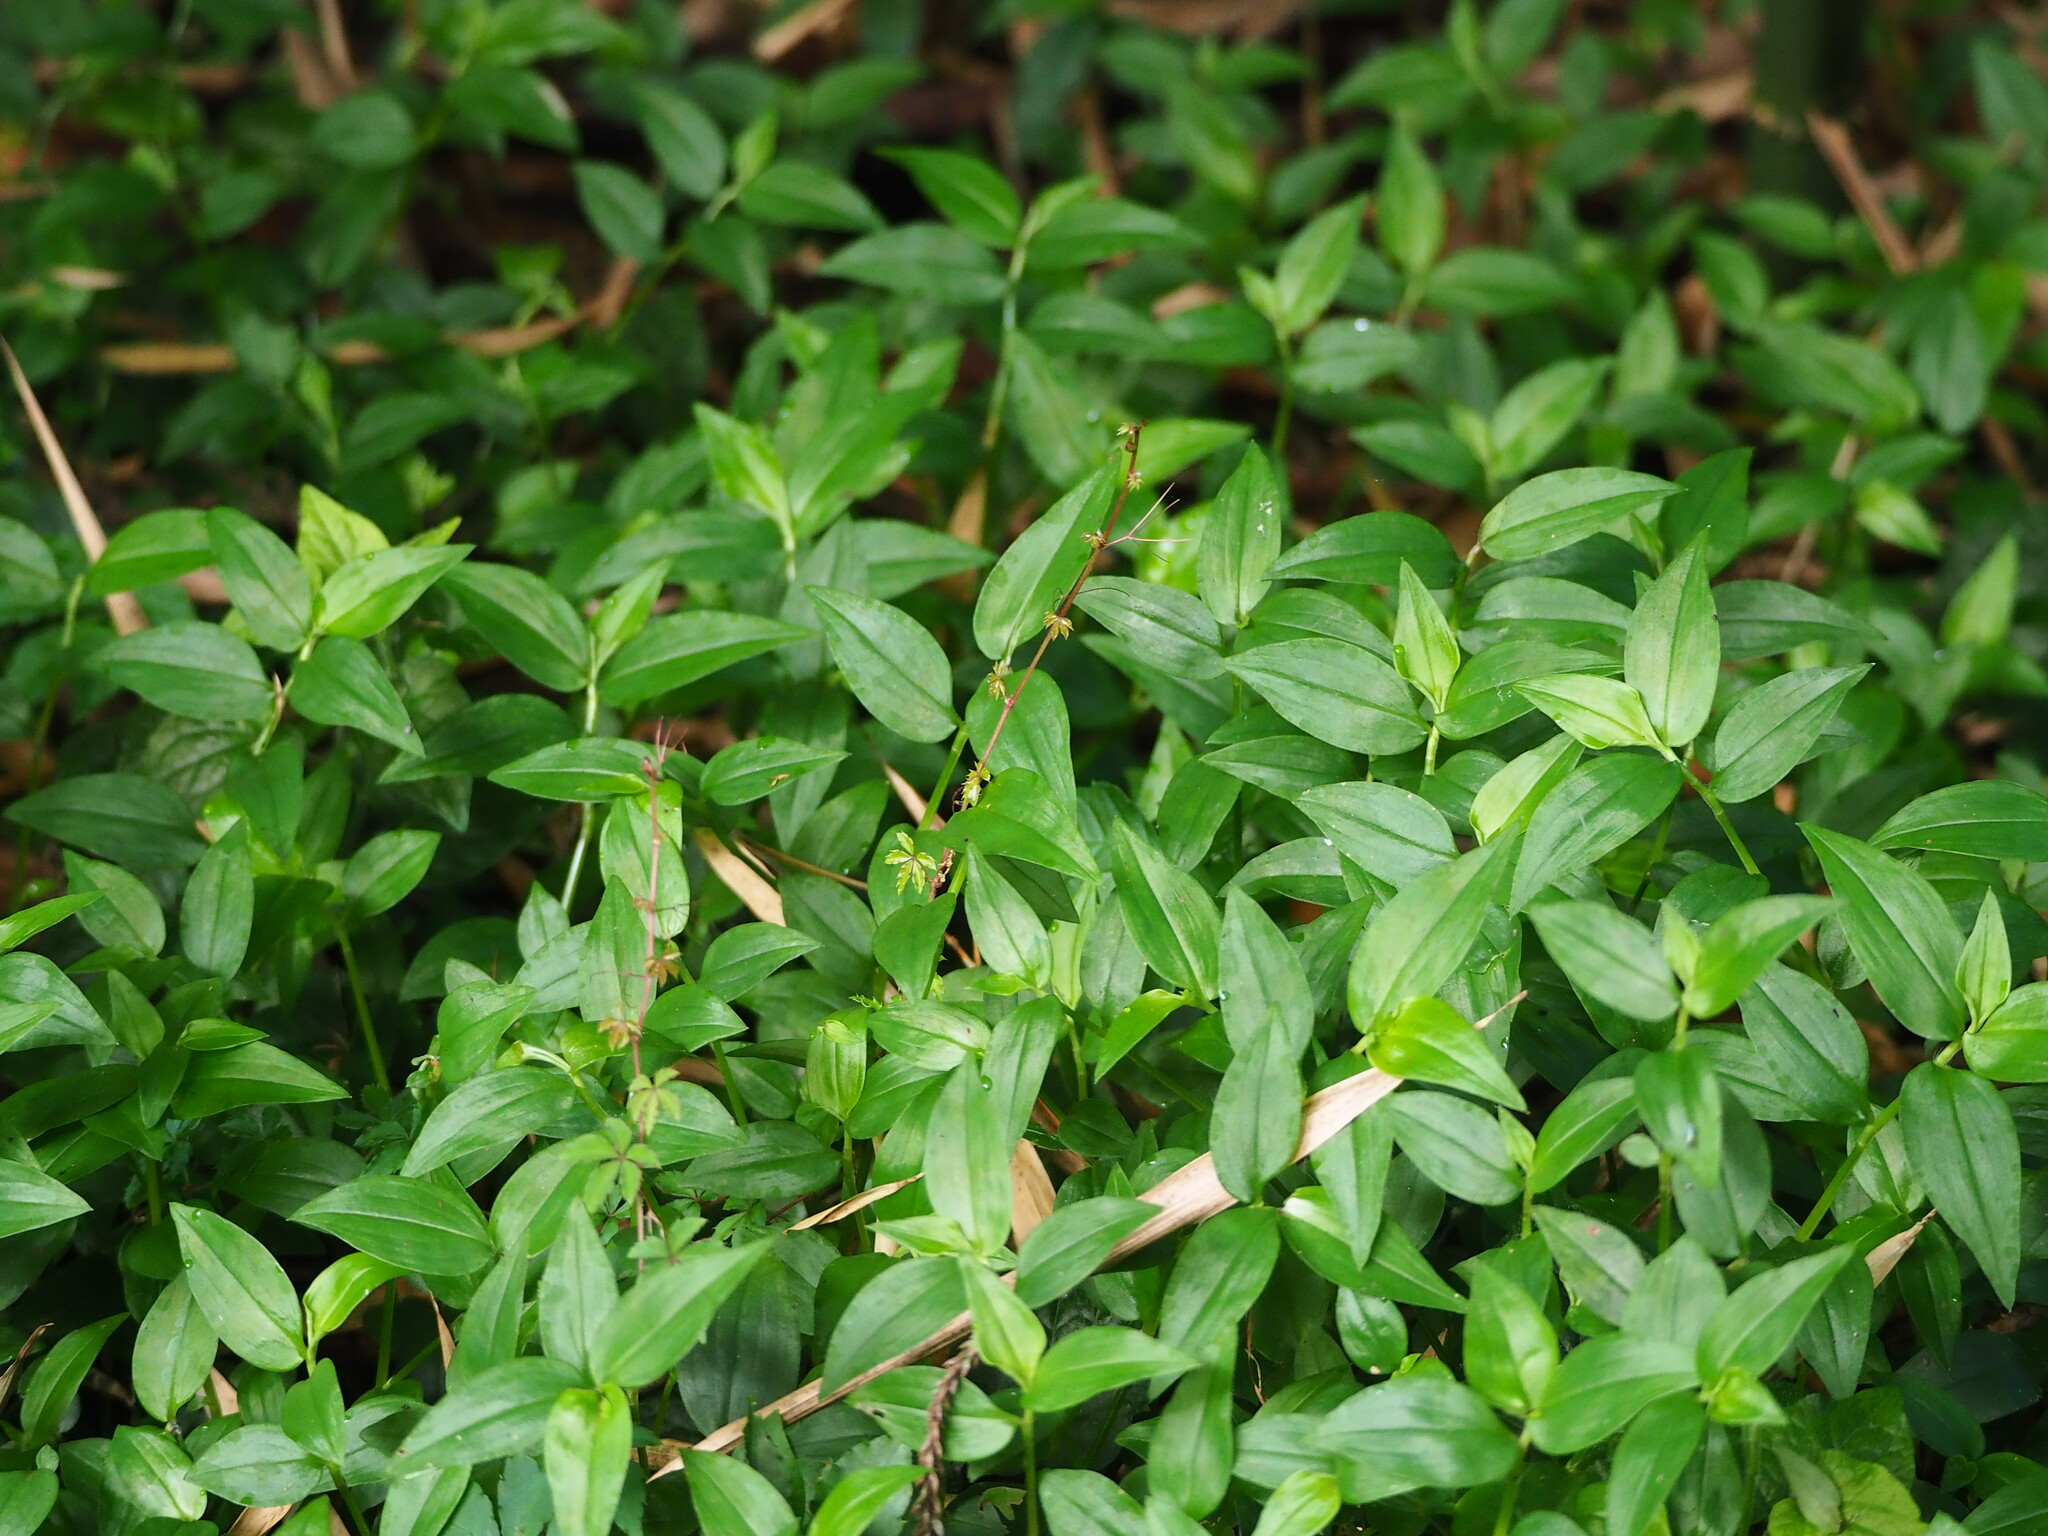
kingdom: Plantae
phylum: Tracheophyta
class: Liliopsida
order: Commelinales
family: Commelinaceae
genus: Tradescantia
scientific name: Tradescantia fluminensis
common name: Wandering-jew
